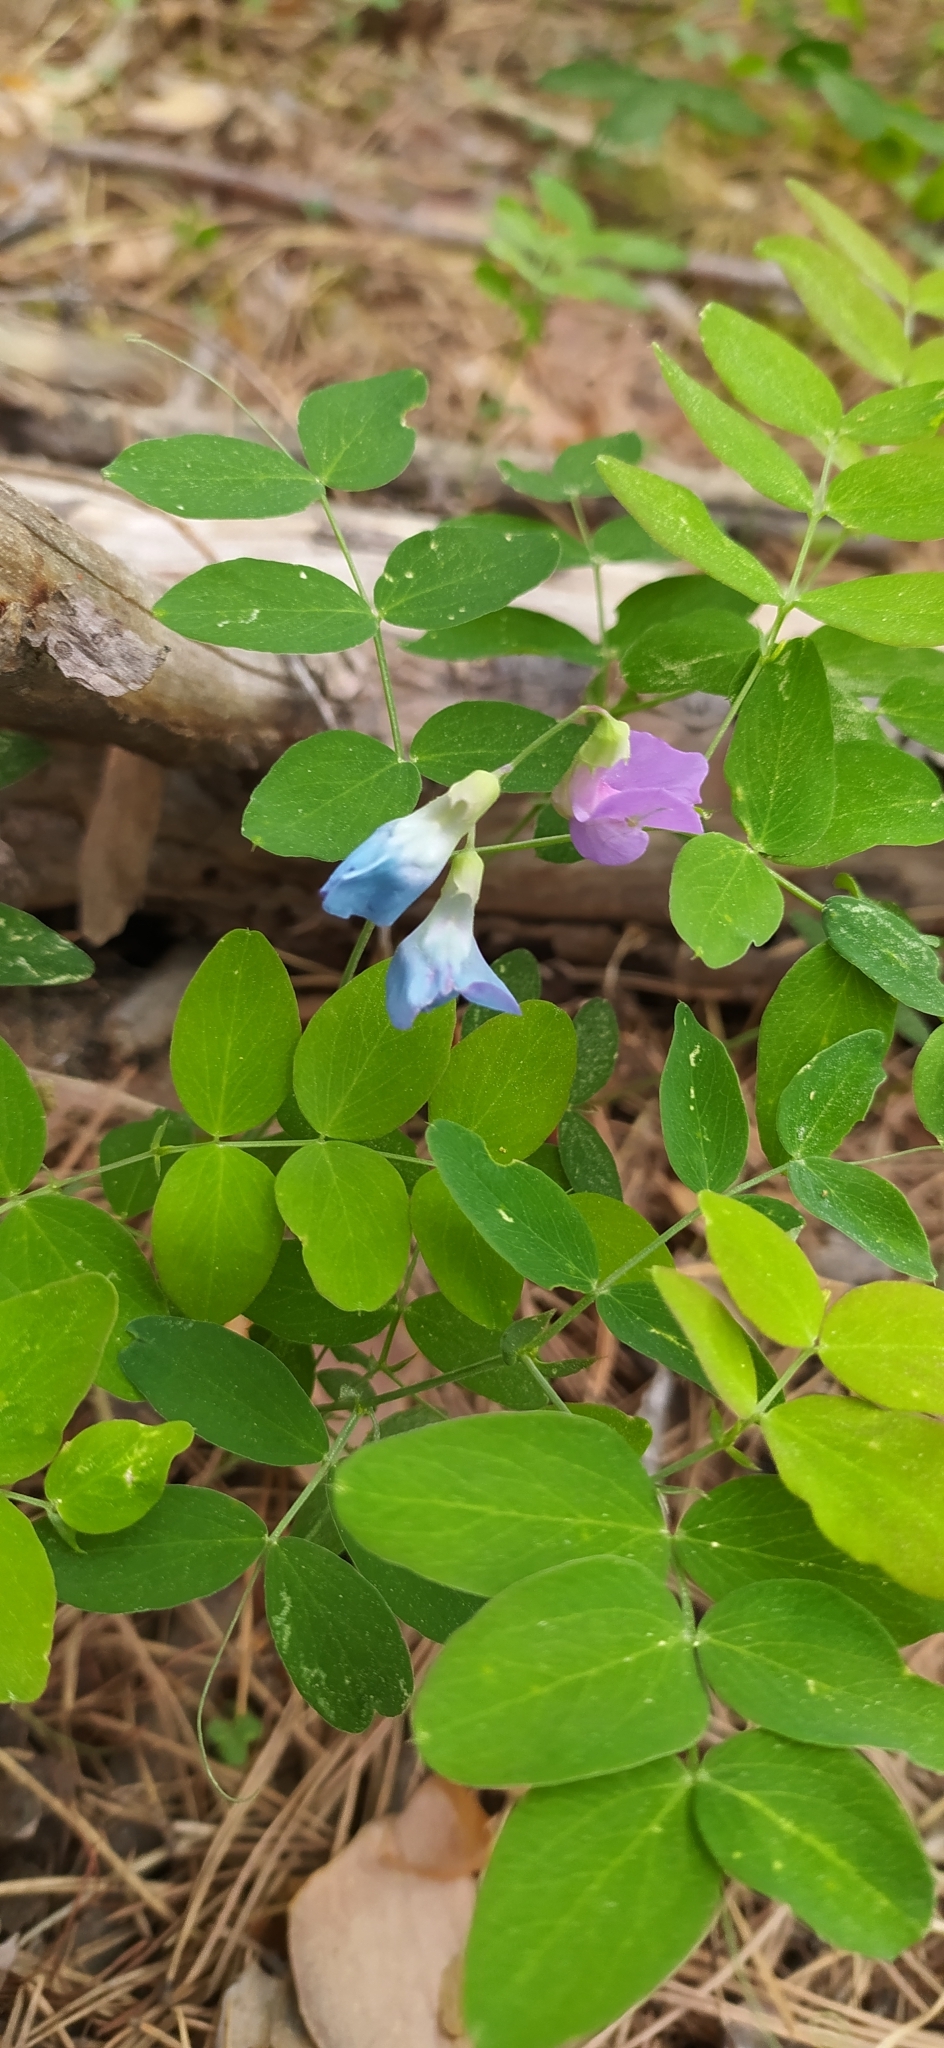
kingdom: Plantae
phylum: Tracheophyta
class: Magnoliopsida
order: Fabales
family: Fabaceae
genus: Lathyrus
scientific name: Lathyrus humilis
